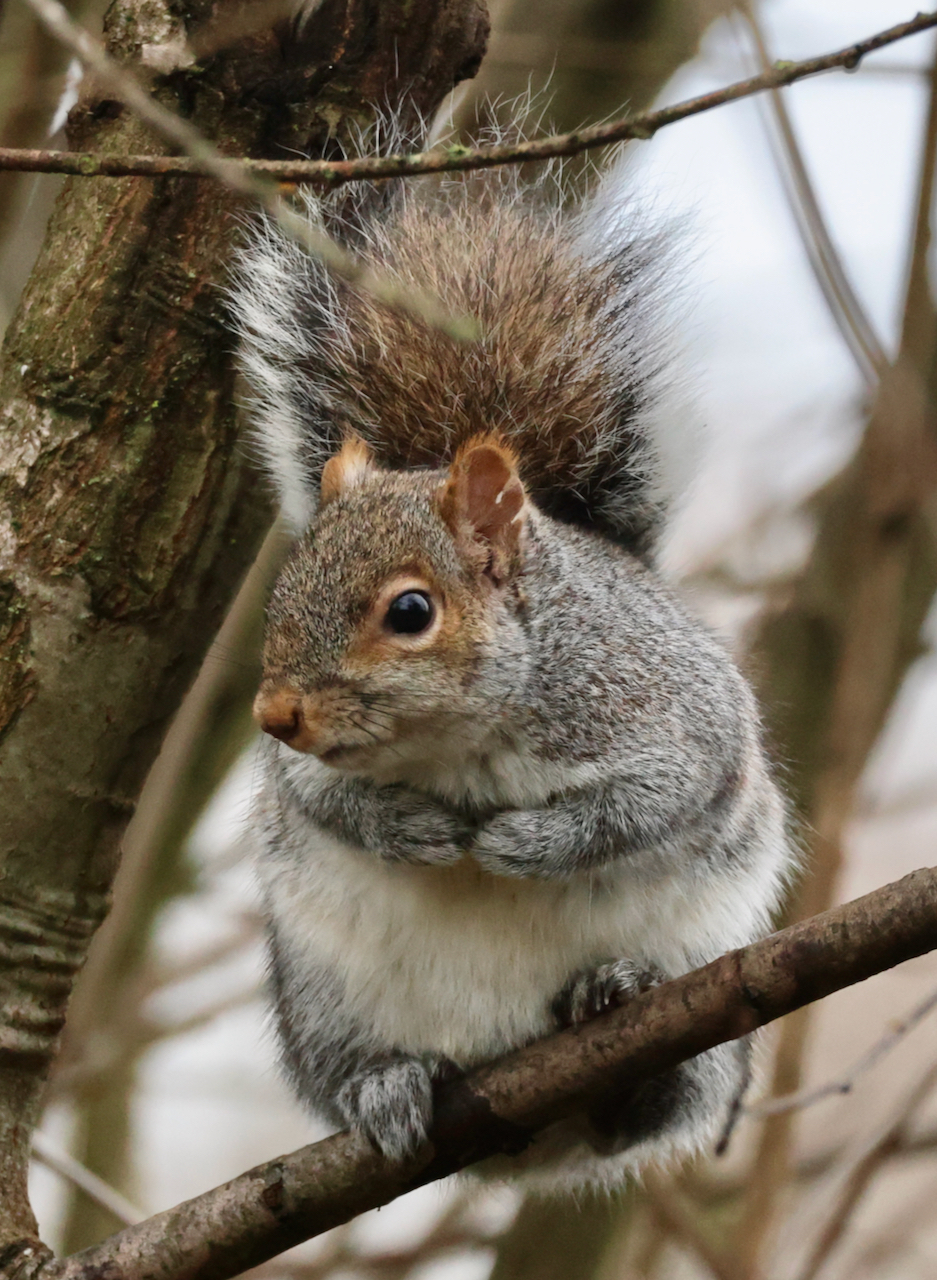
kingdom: Animalia
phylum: Chordata
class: Mammalia
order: Rodentia
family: Sciuridae
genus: Sciurus
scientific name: Sciurus carolinensis
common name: Eastern gray squirrel
